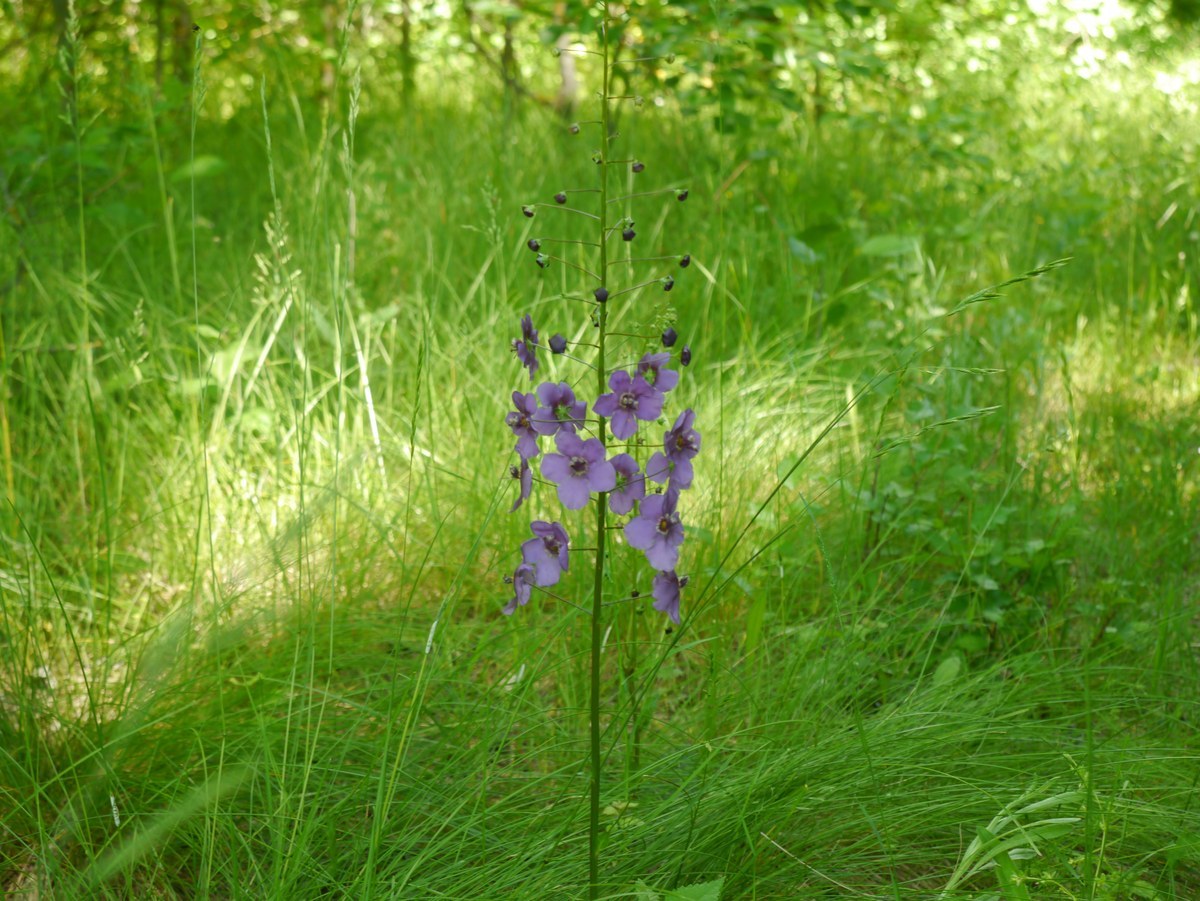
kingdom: Plantae
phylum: Tracheophyta
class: Magnoliopsida
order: Lamiales
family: Scrophulariaceae
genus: Verbascum
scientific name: Verbascum phoeniceum
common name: Purple mullein
